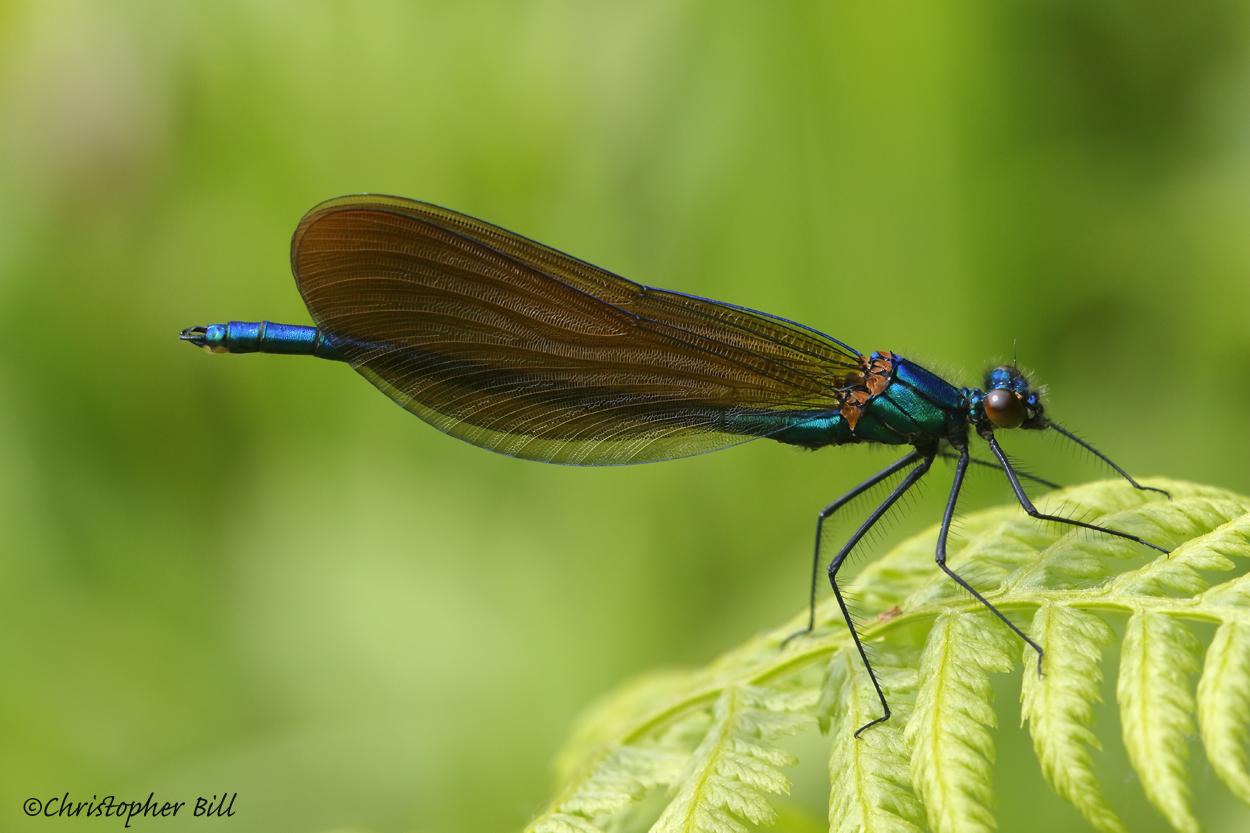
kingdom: Animalia
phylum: Arthropoda
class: Insecta
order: Odonata
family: Calopterygidae
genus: Calopteryx
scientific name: Calopteryx virgo
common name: Beautiful demoiselle
